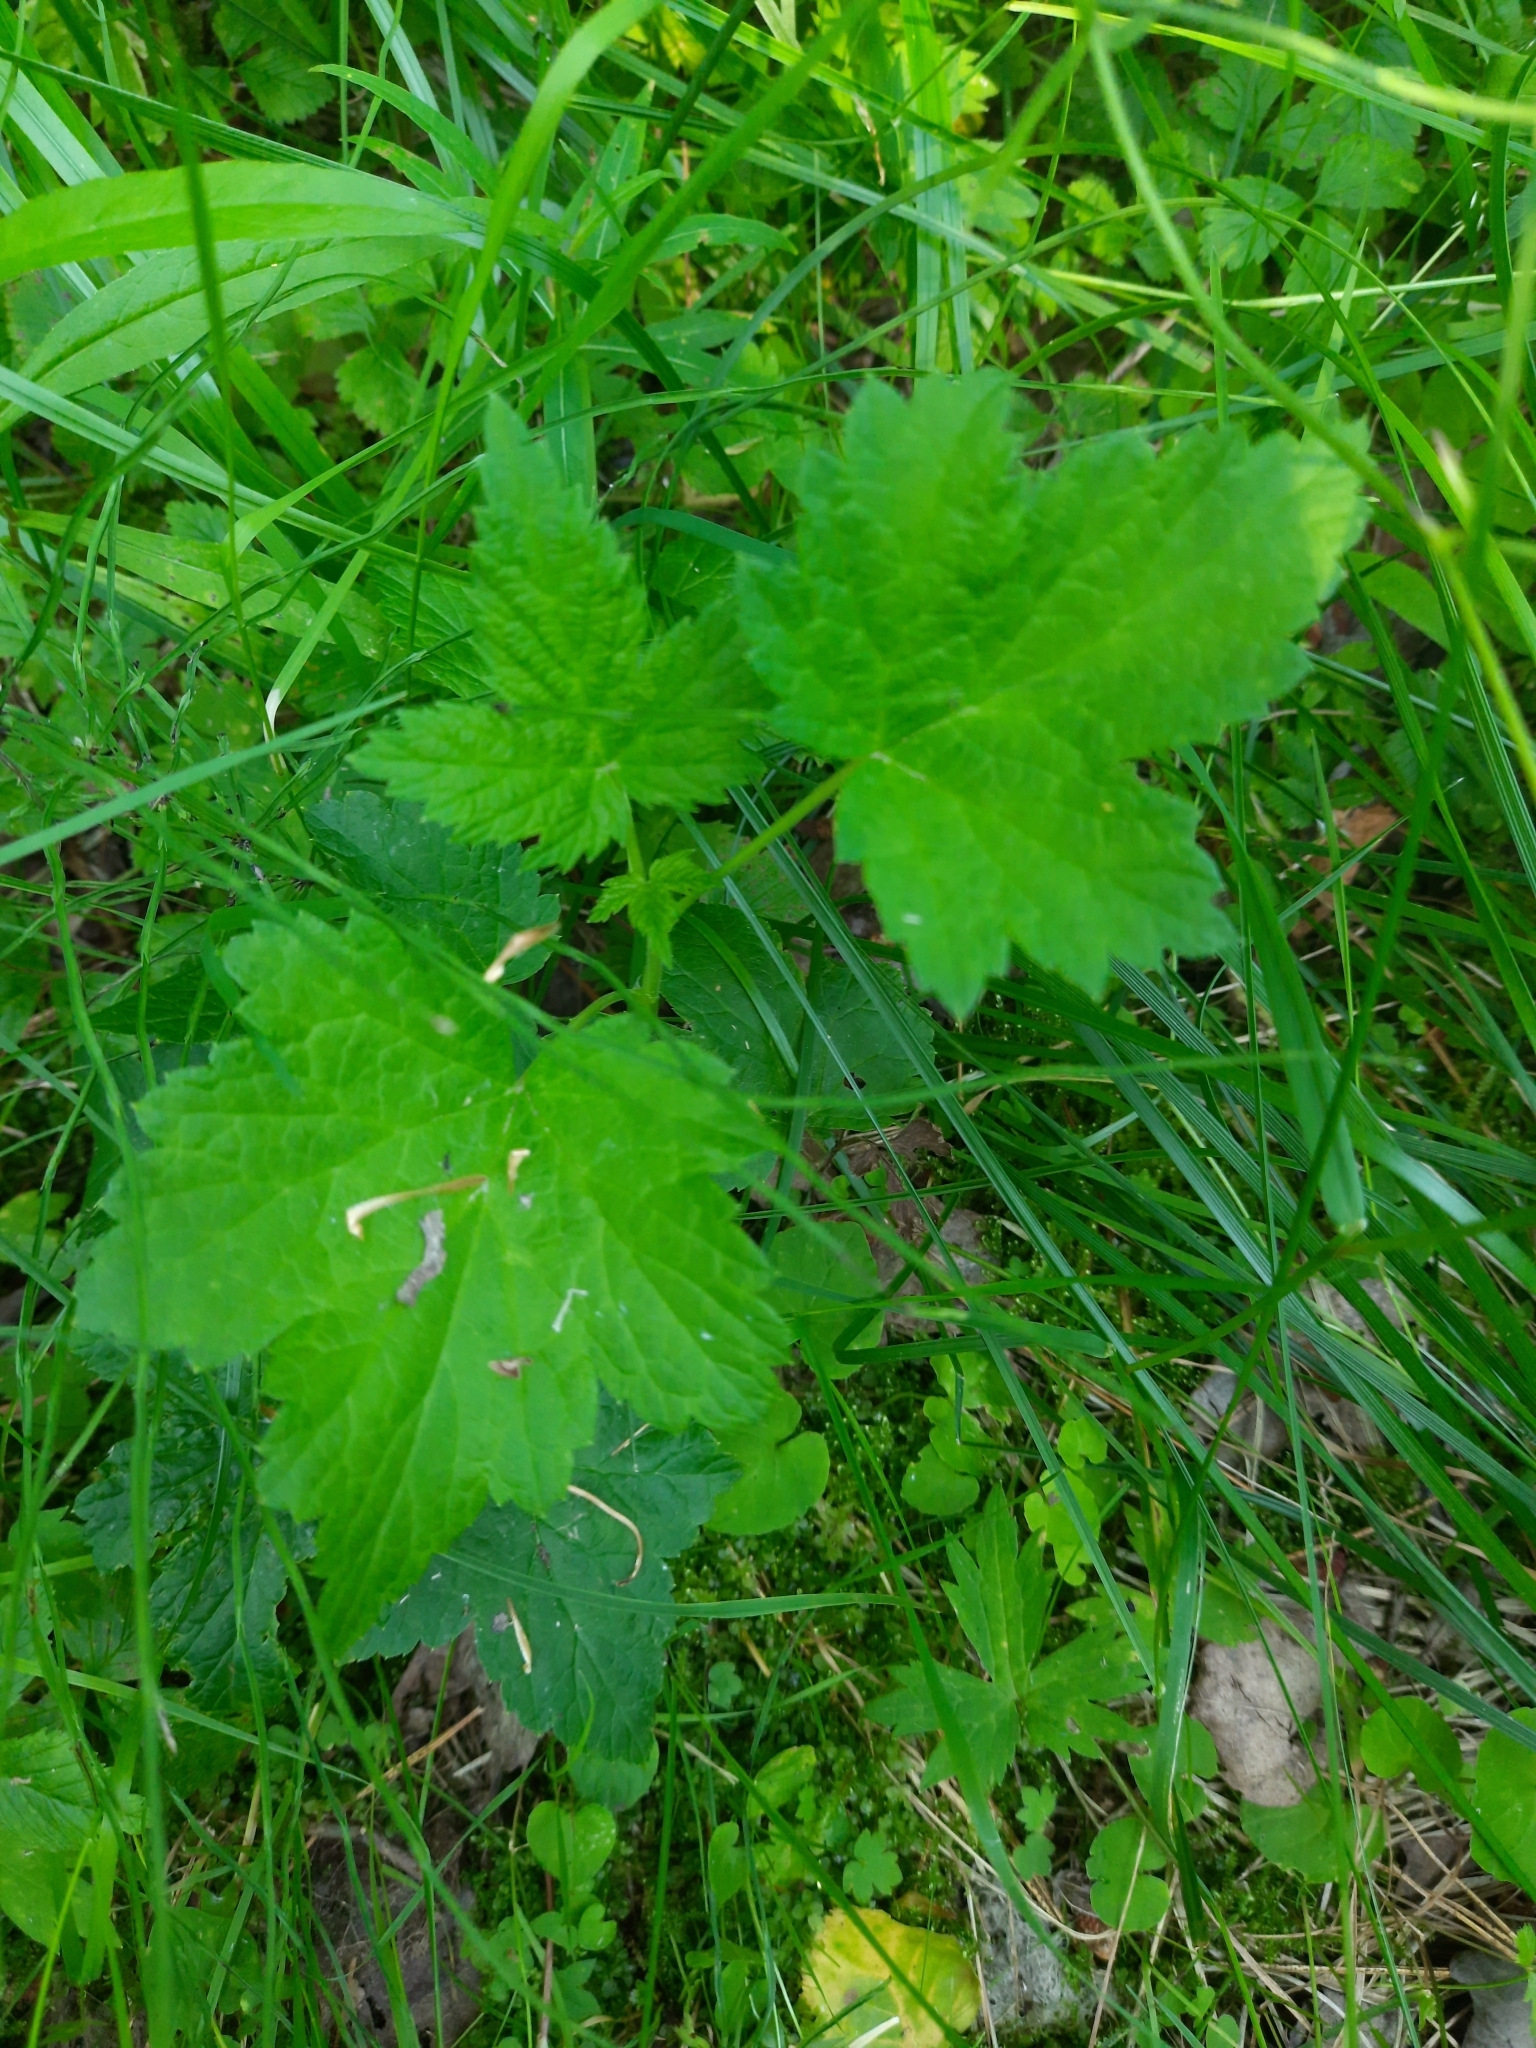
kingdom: Plantae
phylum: Tracheophyta
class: Magnoliopsida
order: Saxifragales
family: Grossulariaceae
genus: Ribes
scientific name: Ribes nigrum
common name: Black currant
